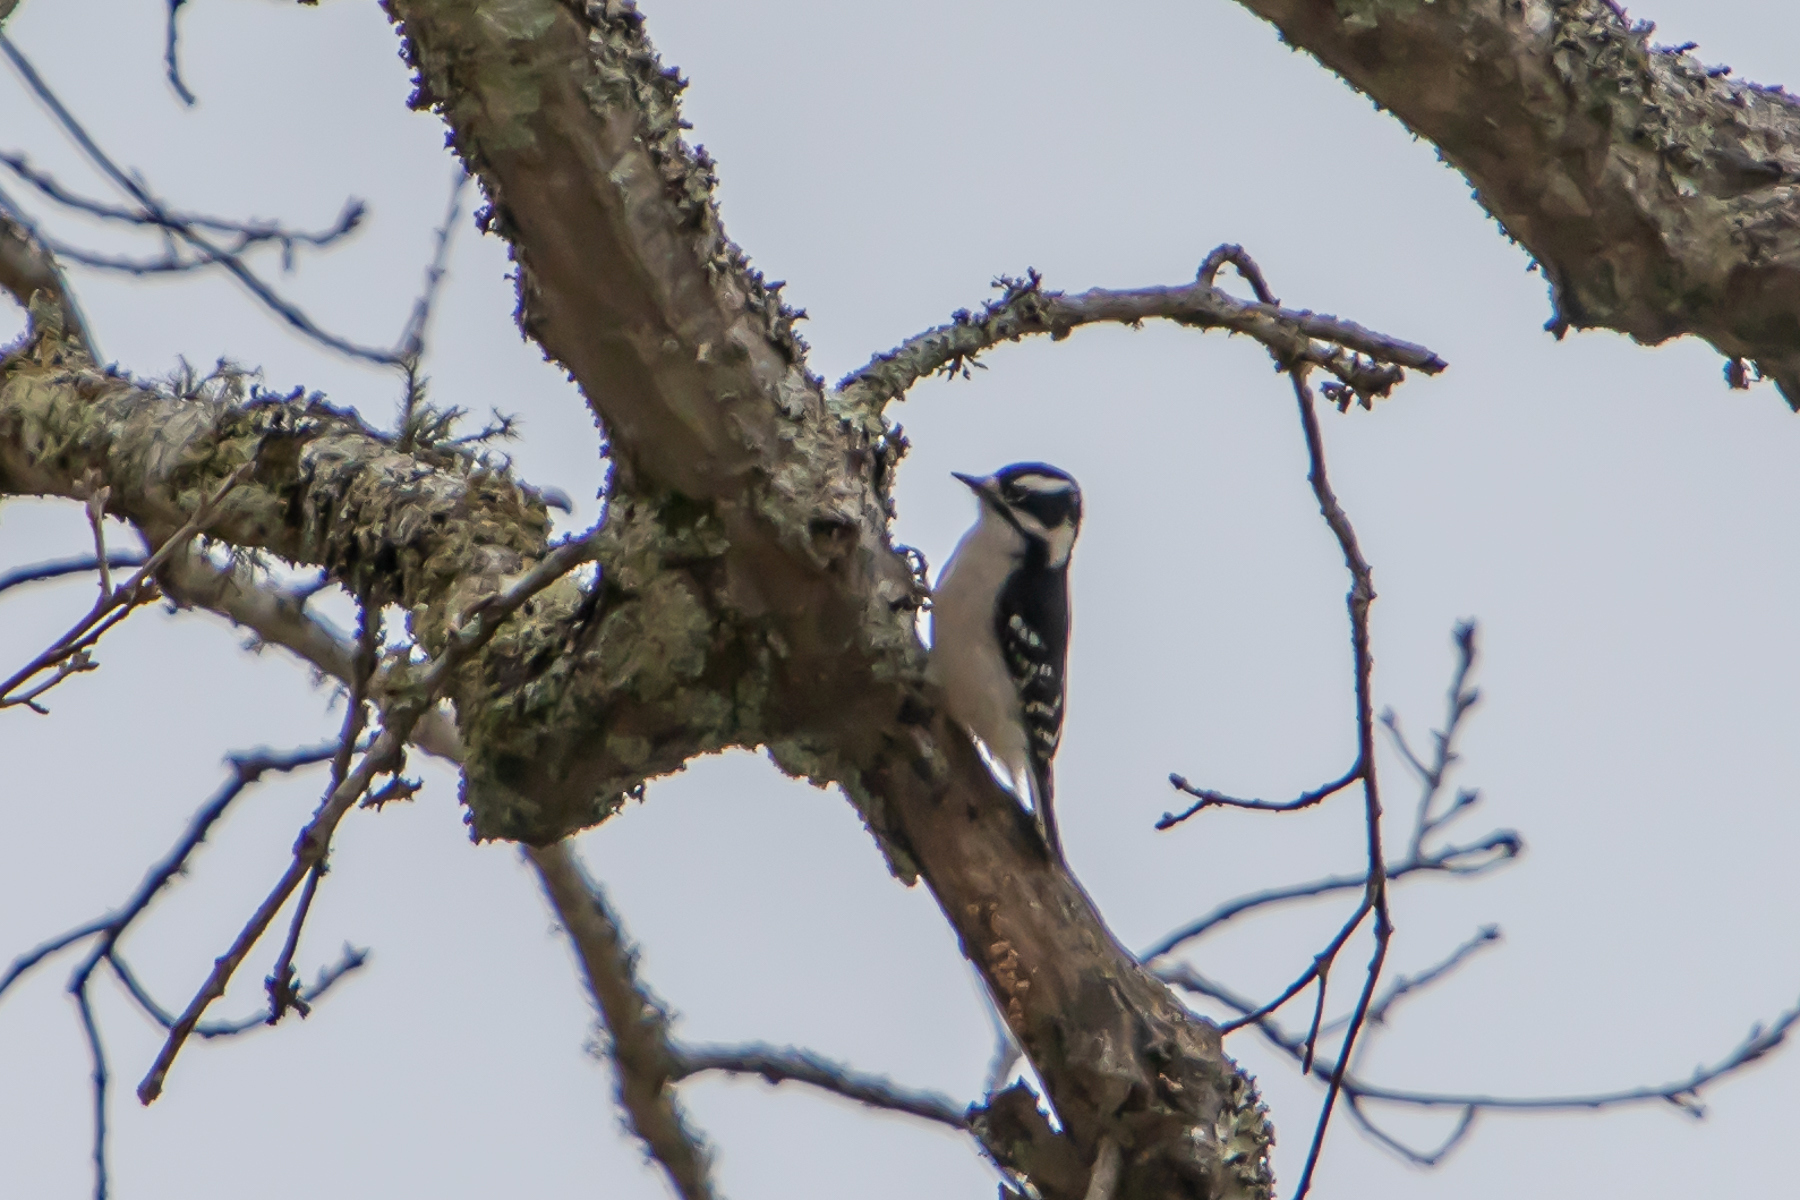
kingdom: Animalia
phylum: Chordata
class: Aves
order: Piciformes
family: Picidae
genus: Dryobates
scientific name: Dryobates pubescens
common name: Downy woodpecker
